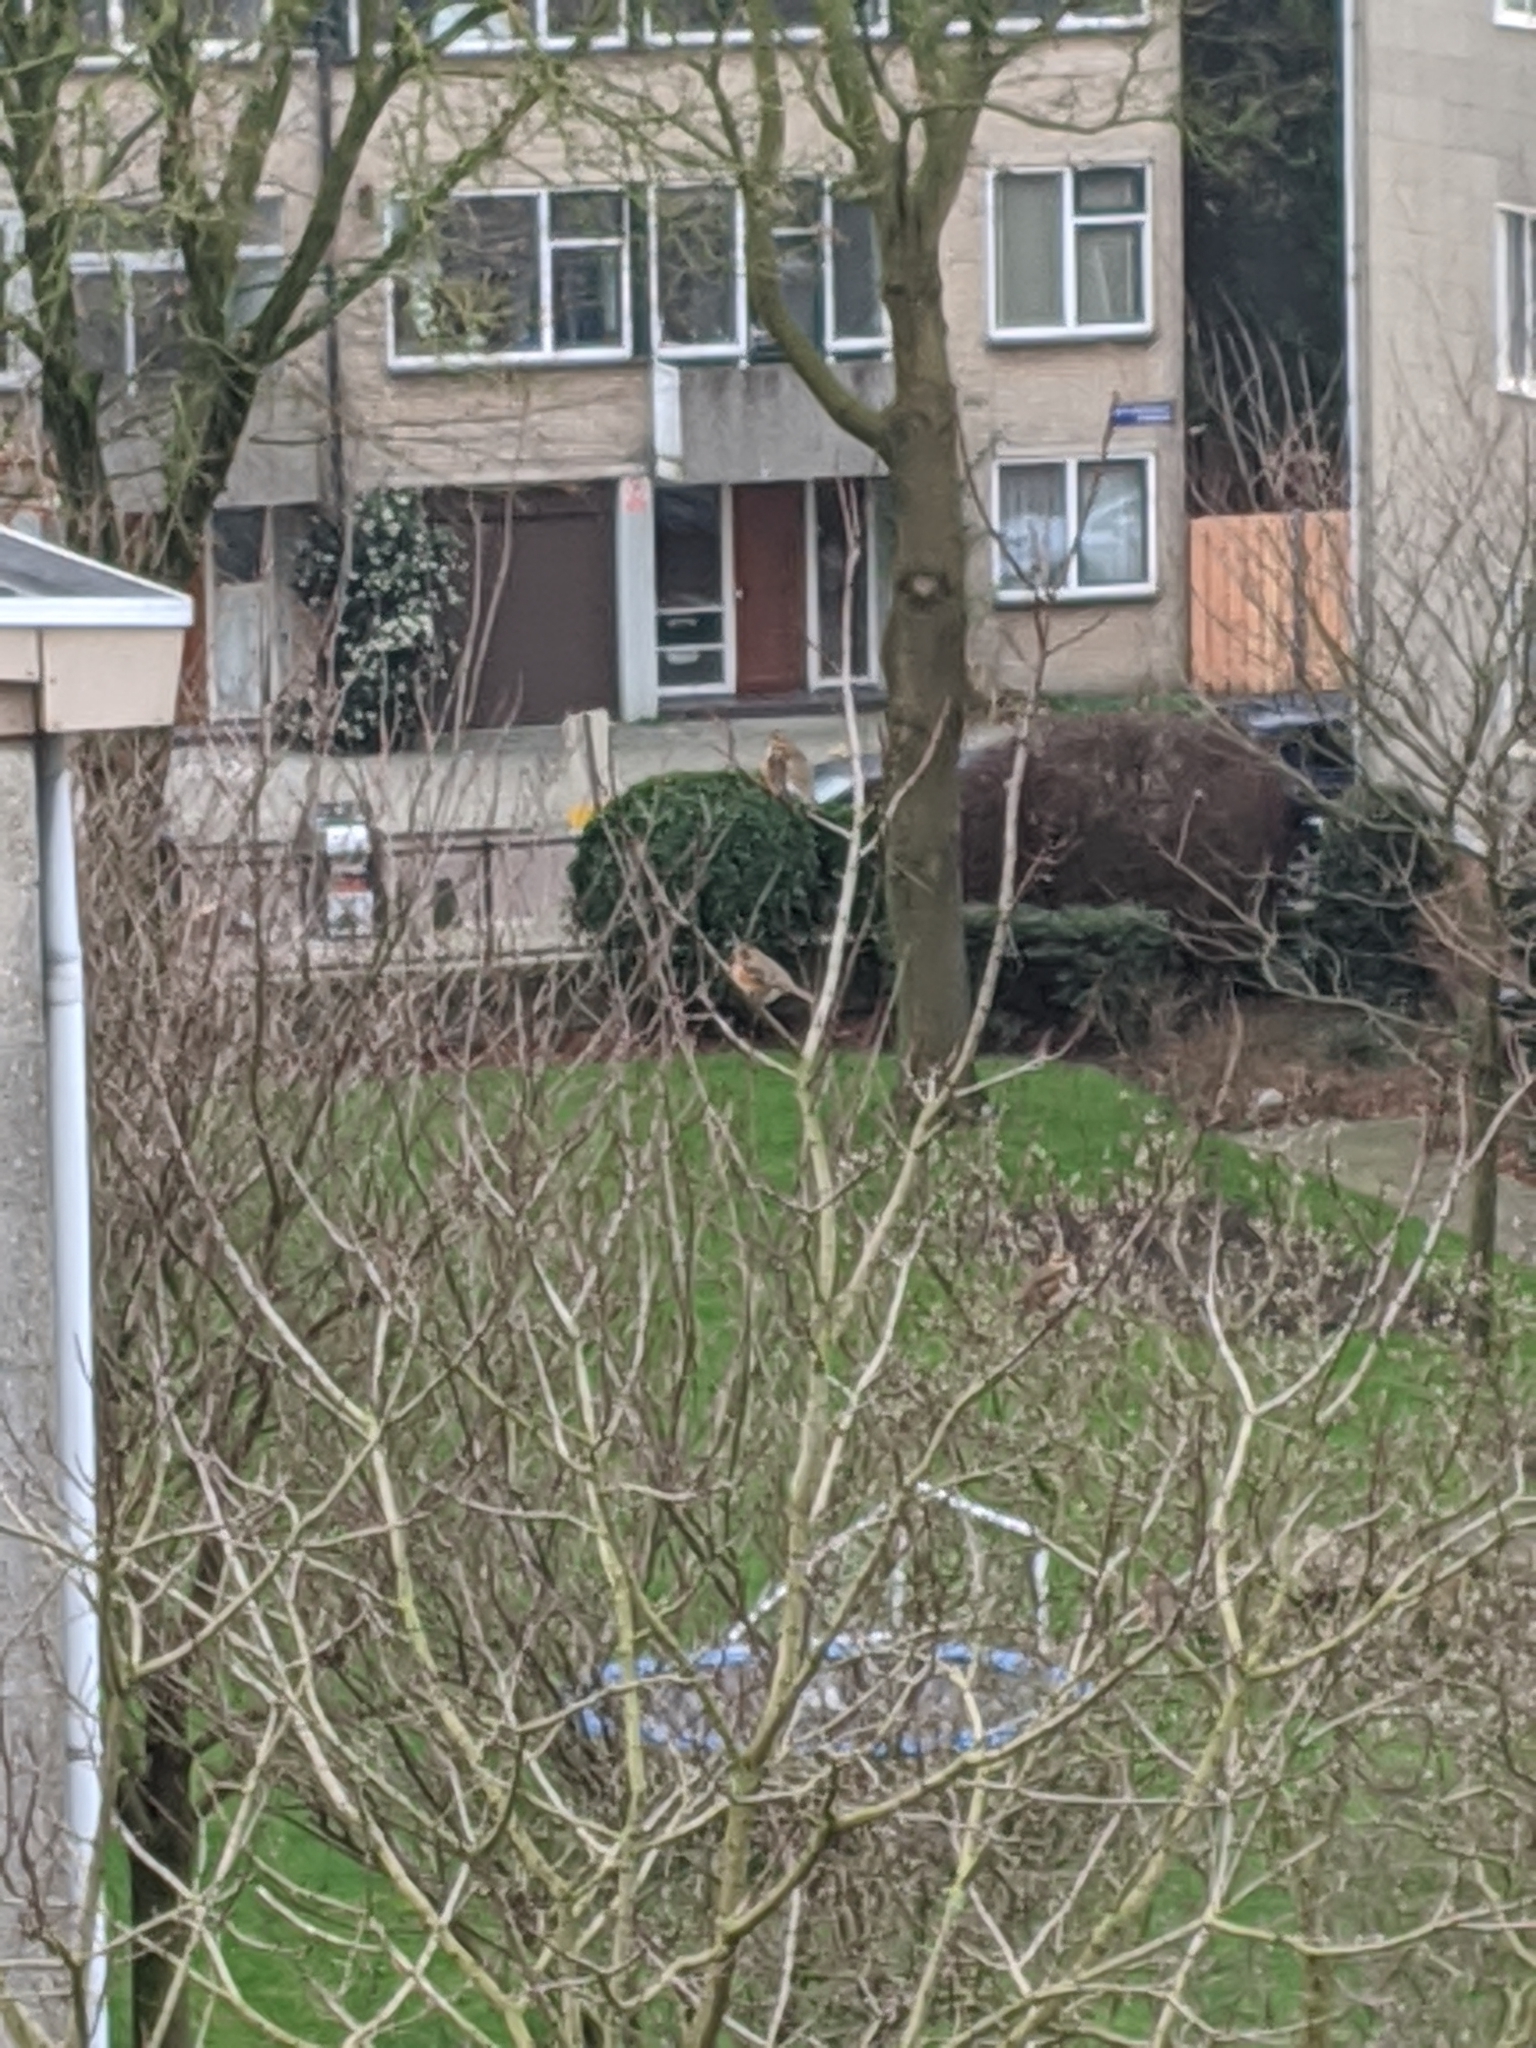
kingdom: Animalia
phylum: Chordata
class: Aves
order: Passeriformes
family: Turdidae
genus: Turdus
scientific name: Turdus iliacus
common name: Redwing
